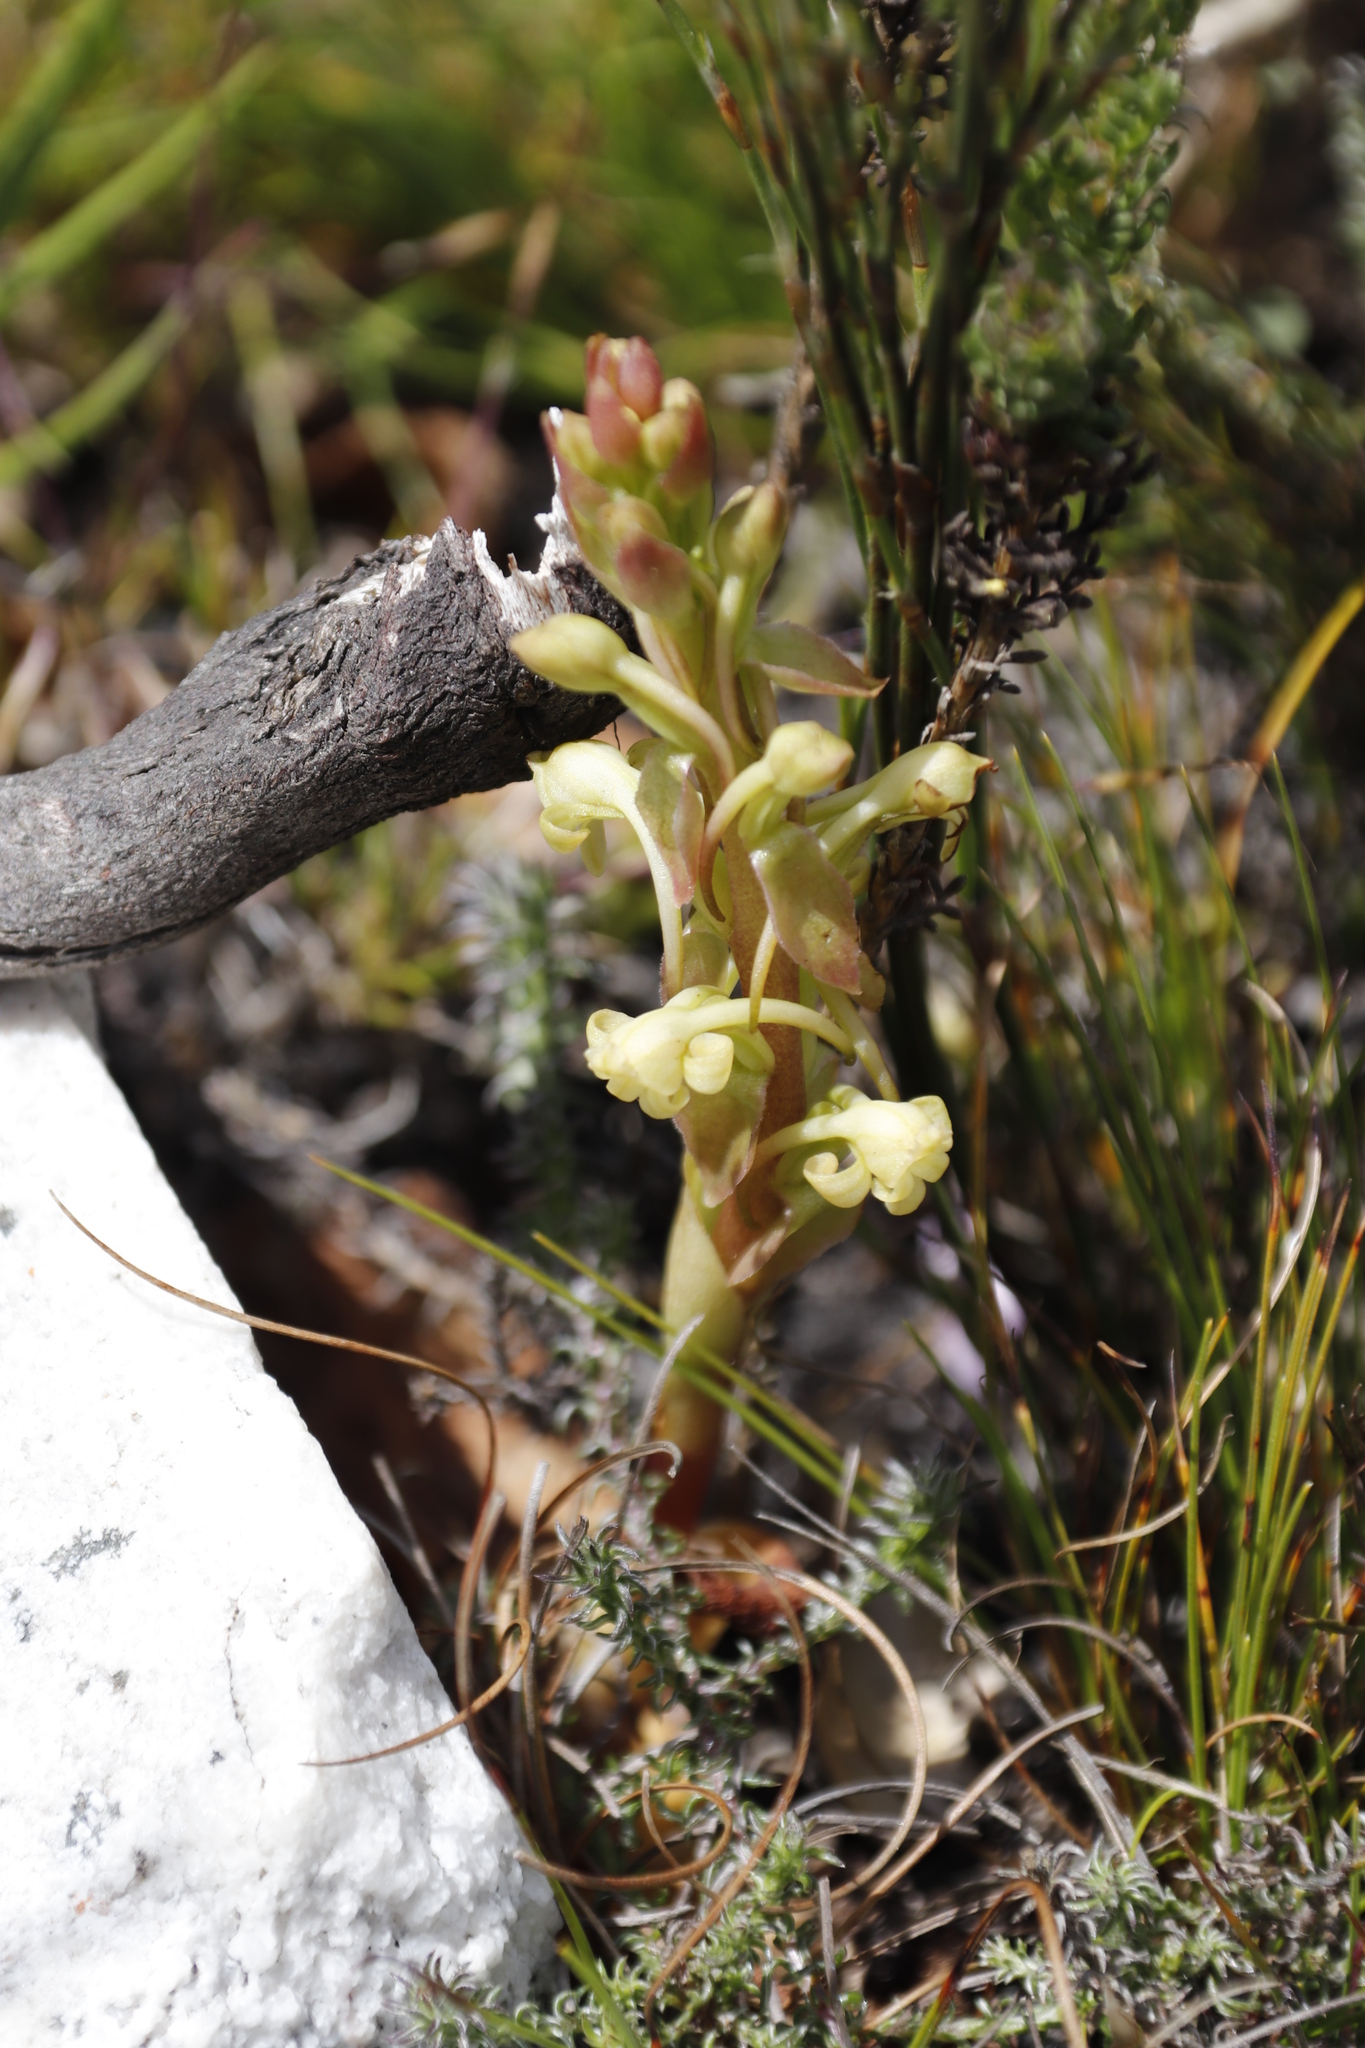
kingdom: Plantae
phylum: Tracheophyta
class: Liliopsida
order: Asparagales
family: Orchidaceae
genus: Satyrium
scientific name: Satyrium humile
